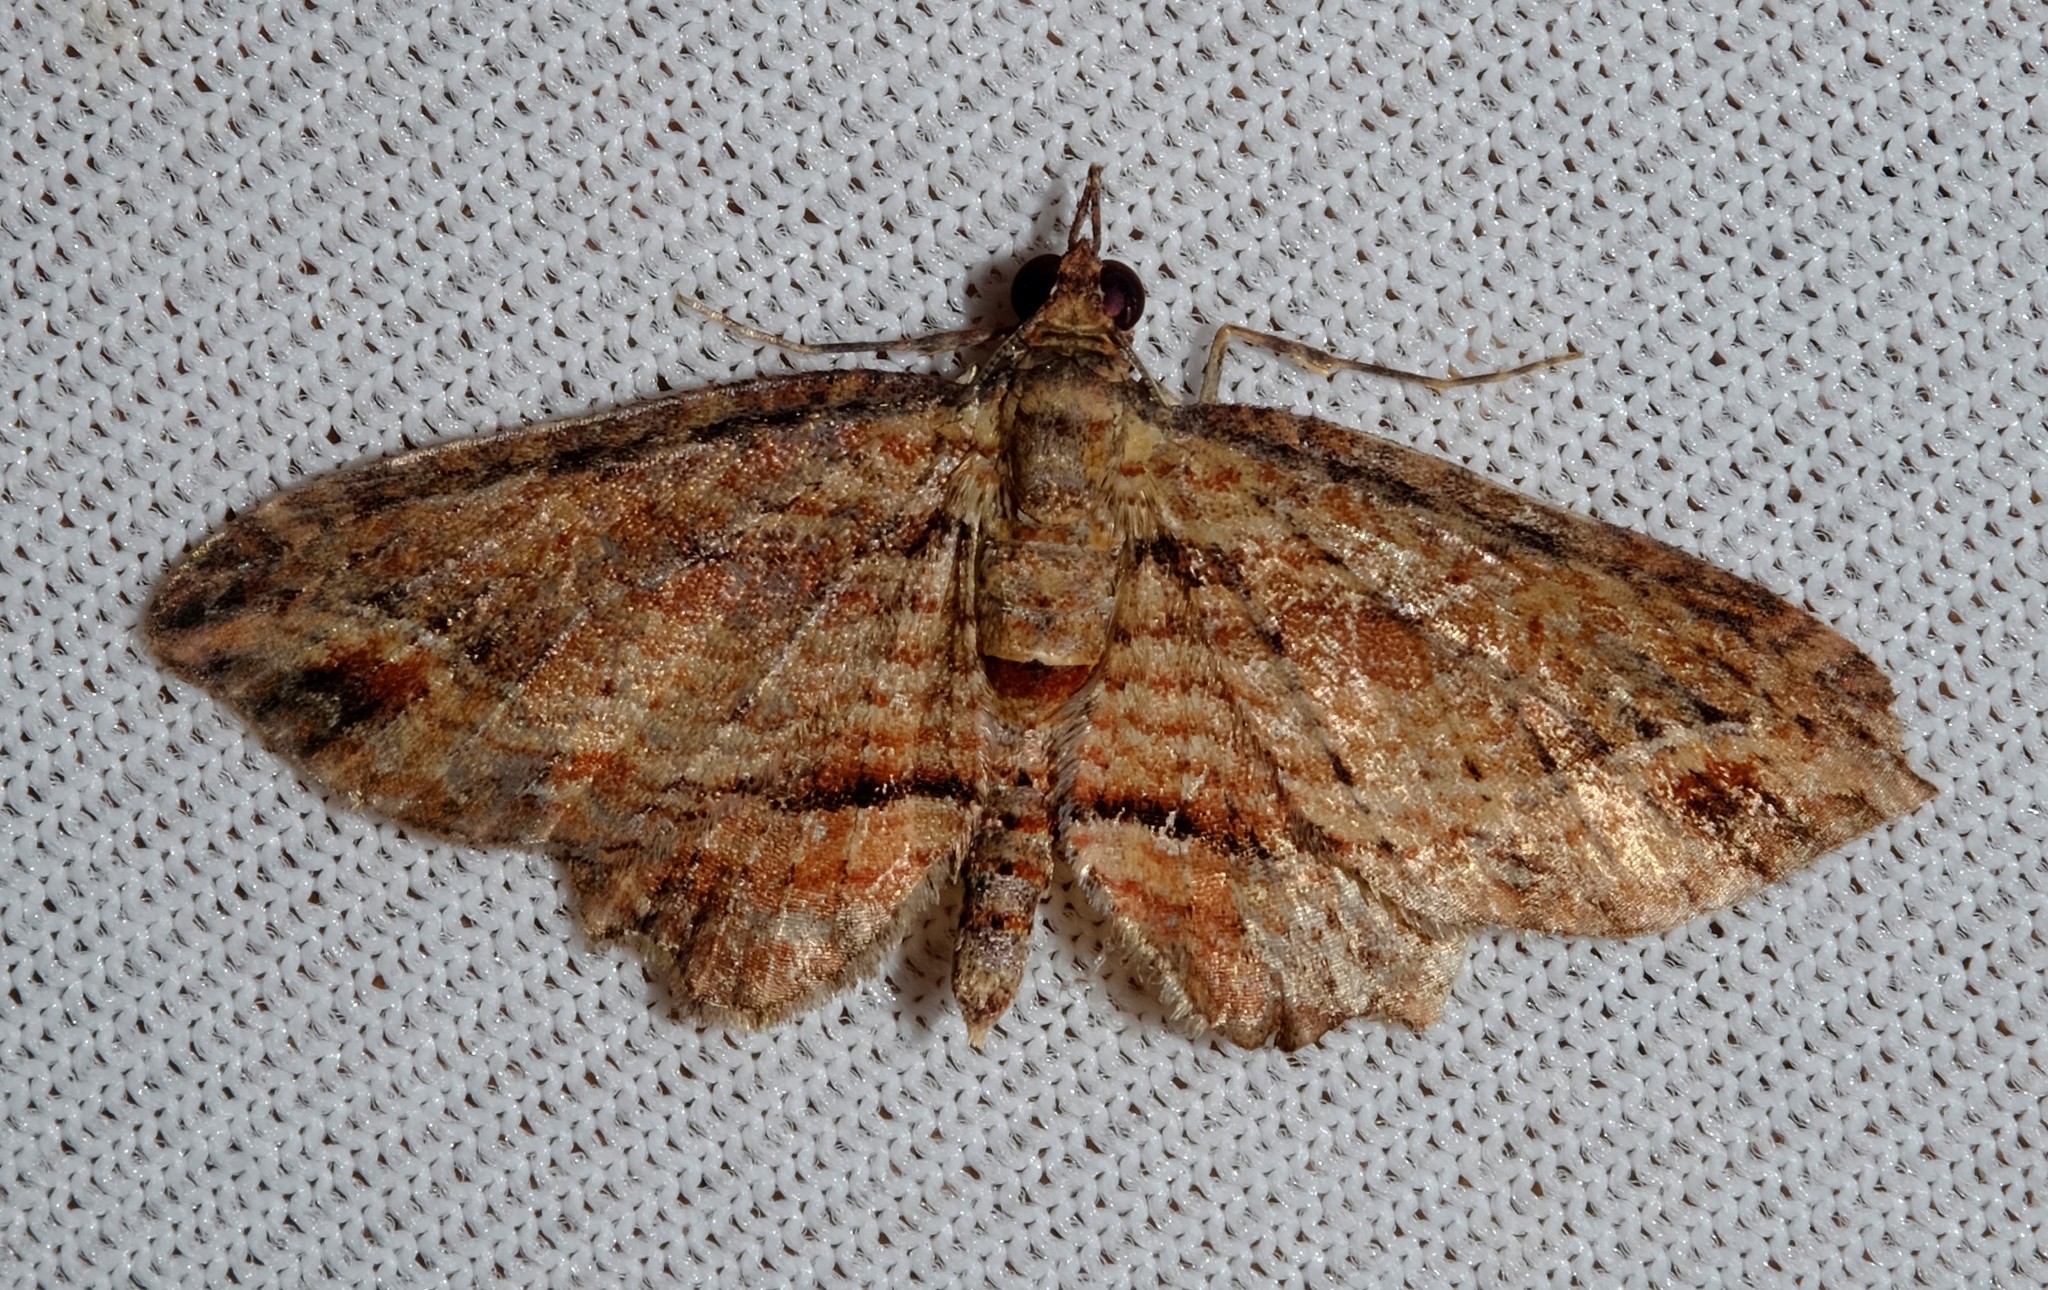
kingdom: Animalia
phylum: Arthropoda
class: Insecta
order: Lepidoptera
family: Geometridae
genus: Chloroclystis
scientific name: Chloroclystis filata
